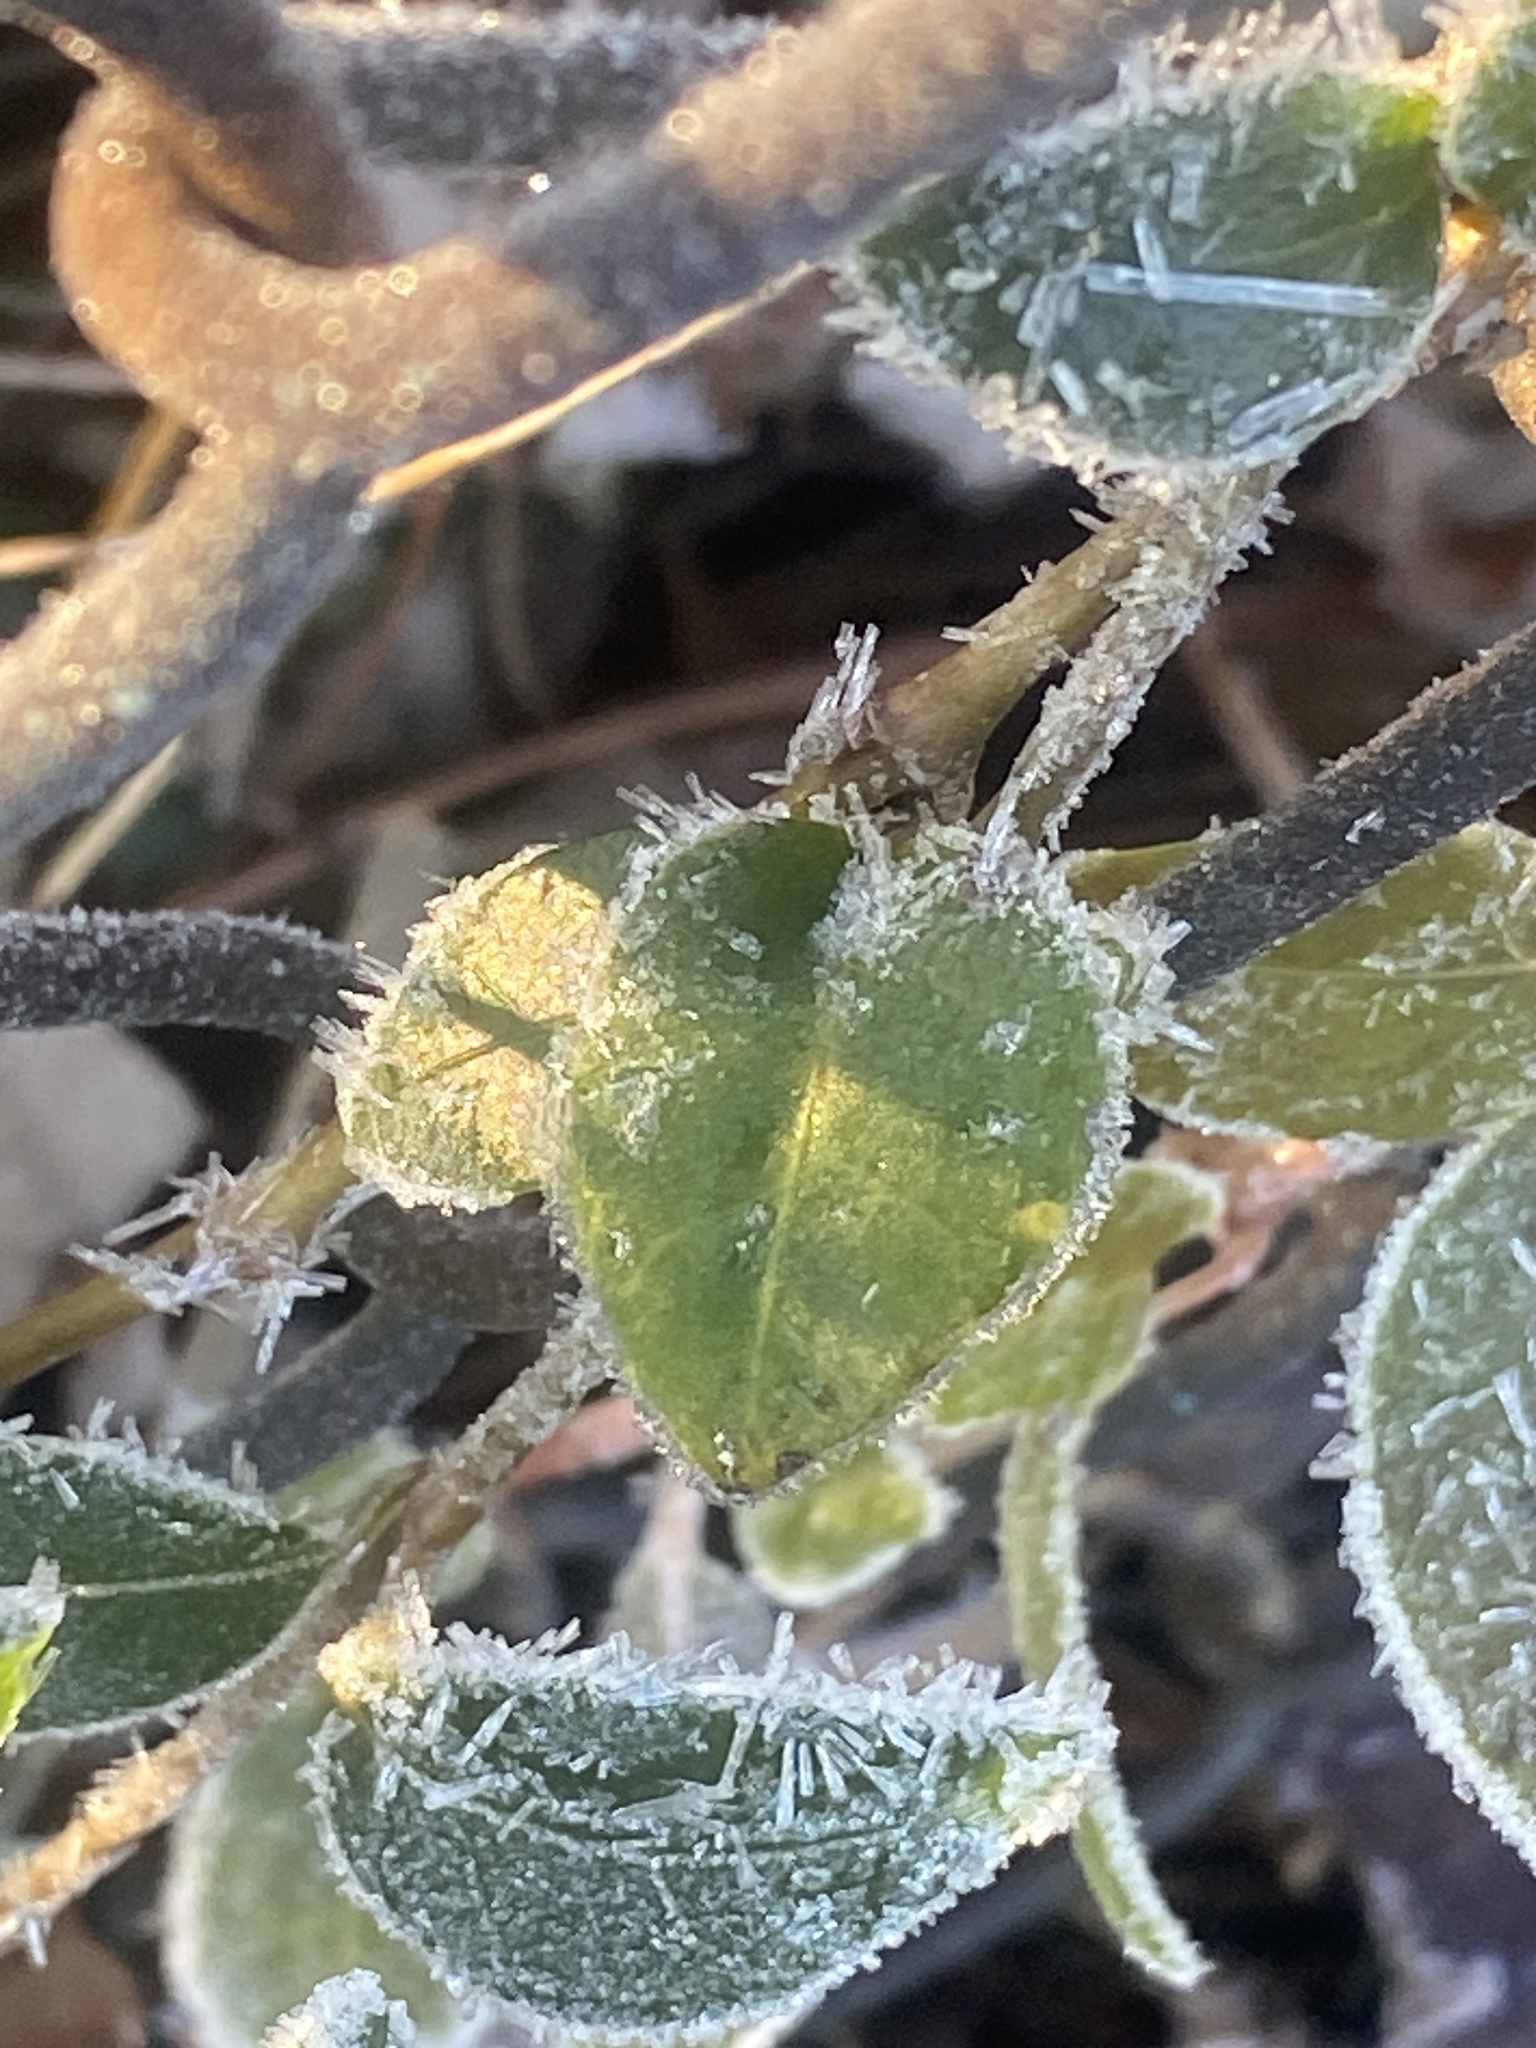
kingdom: Plantae
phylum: Tracheophyta
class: Magnoliopsida
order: Gentianales
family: Apocynaceae
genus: Vinca
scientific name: Vinca minor
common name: Lesser periwinkle
